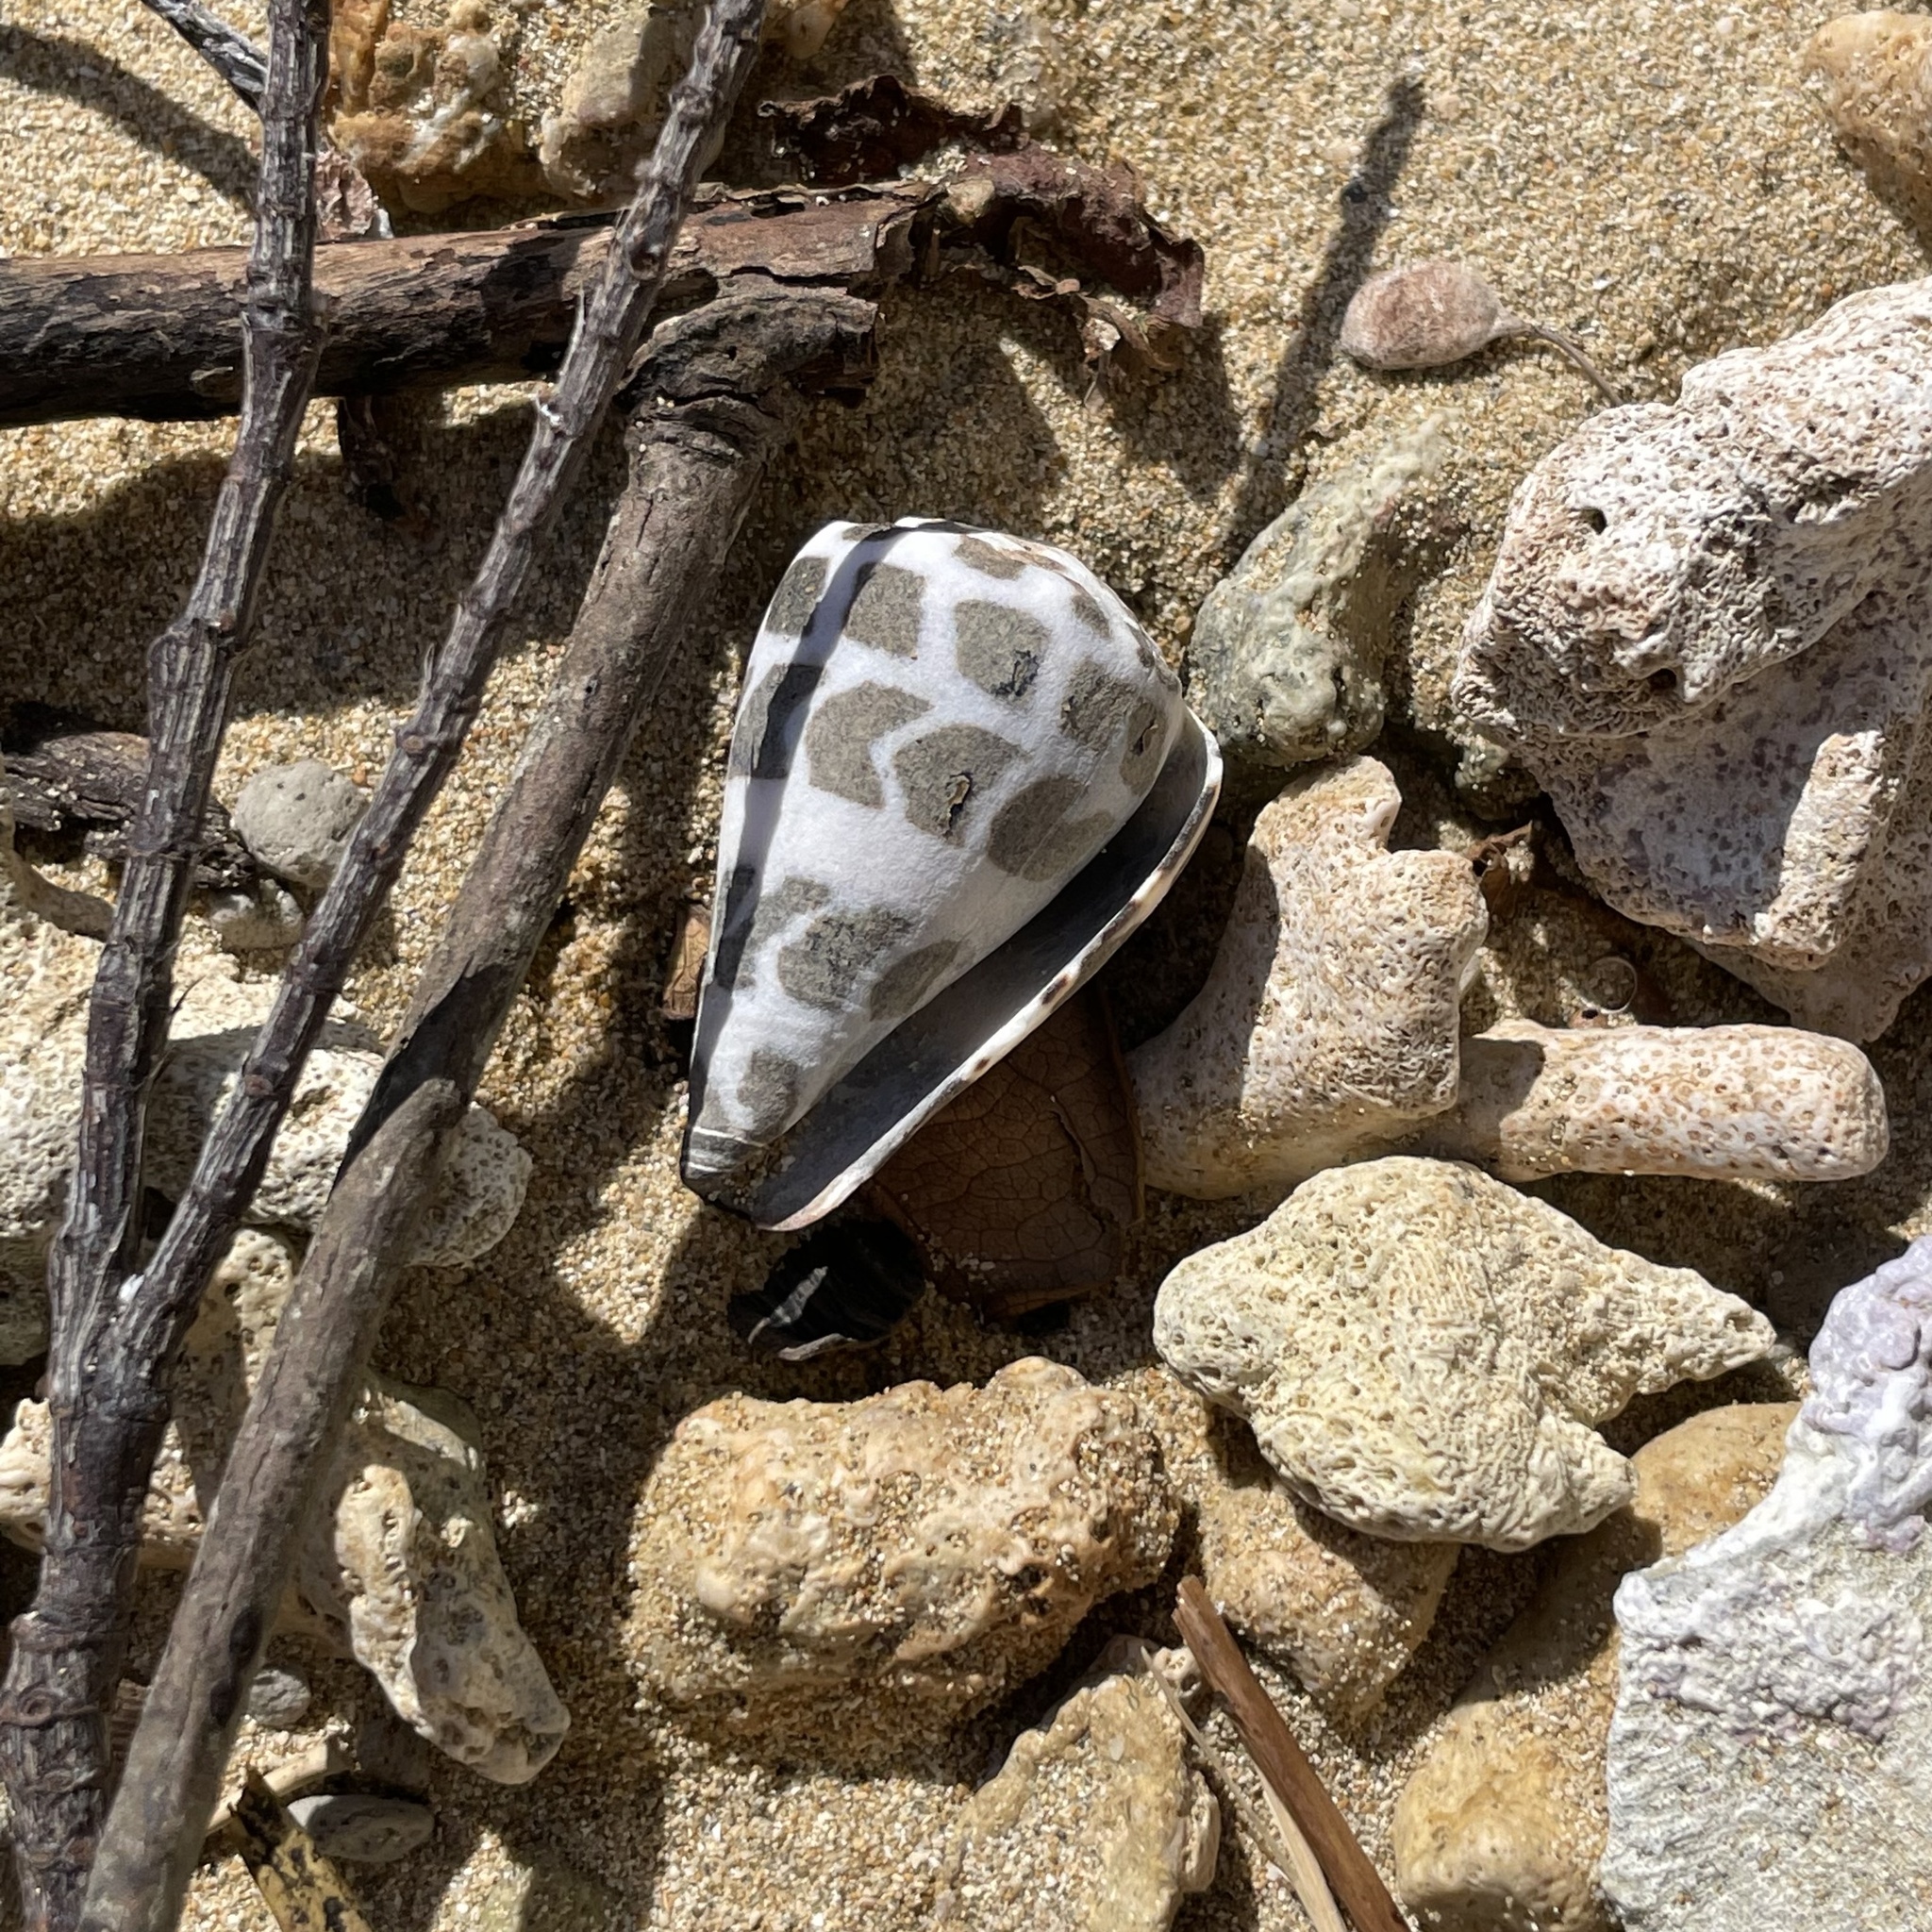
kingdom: Animalia
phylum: Mollusca
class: Gastropoda
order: Neogastropoda
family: Conidae
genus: Conus
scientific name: Conus ebraeus
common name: Hebrew cone
